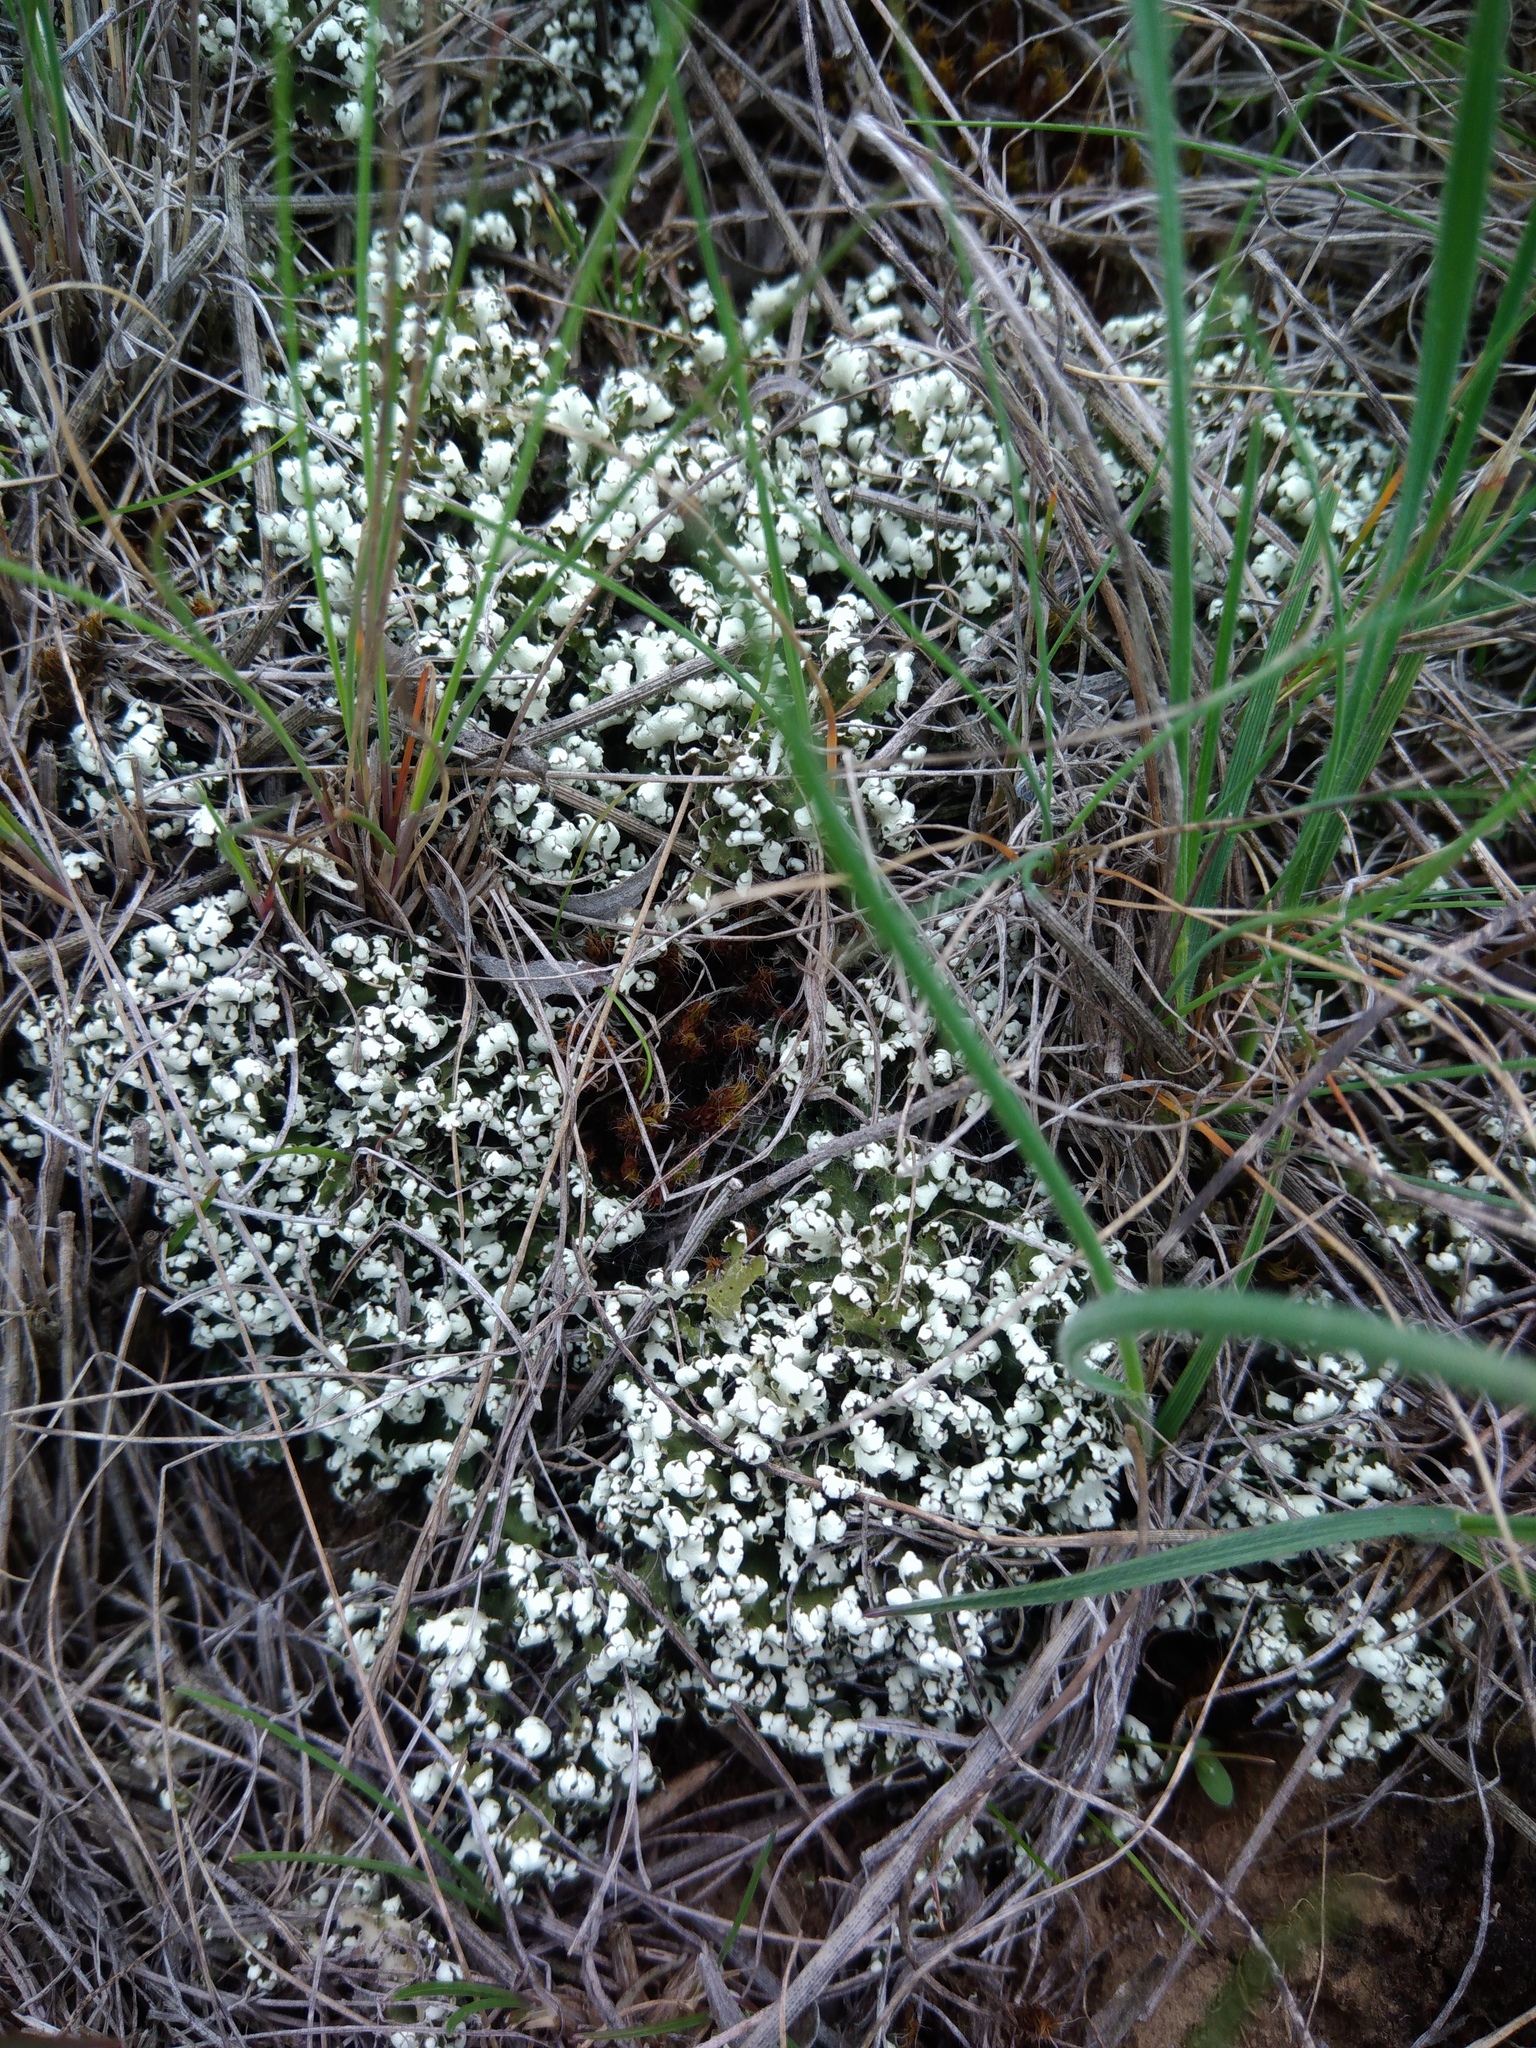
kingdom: Fungi
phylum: Ascomycota
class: Lecanoromycetes
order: Lecanorales
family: Cladoniaceae
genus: Cladonia
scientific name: Cladonia foliacea
